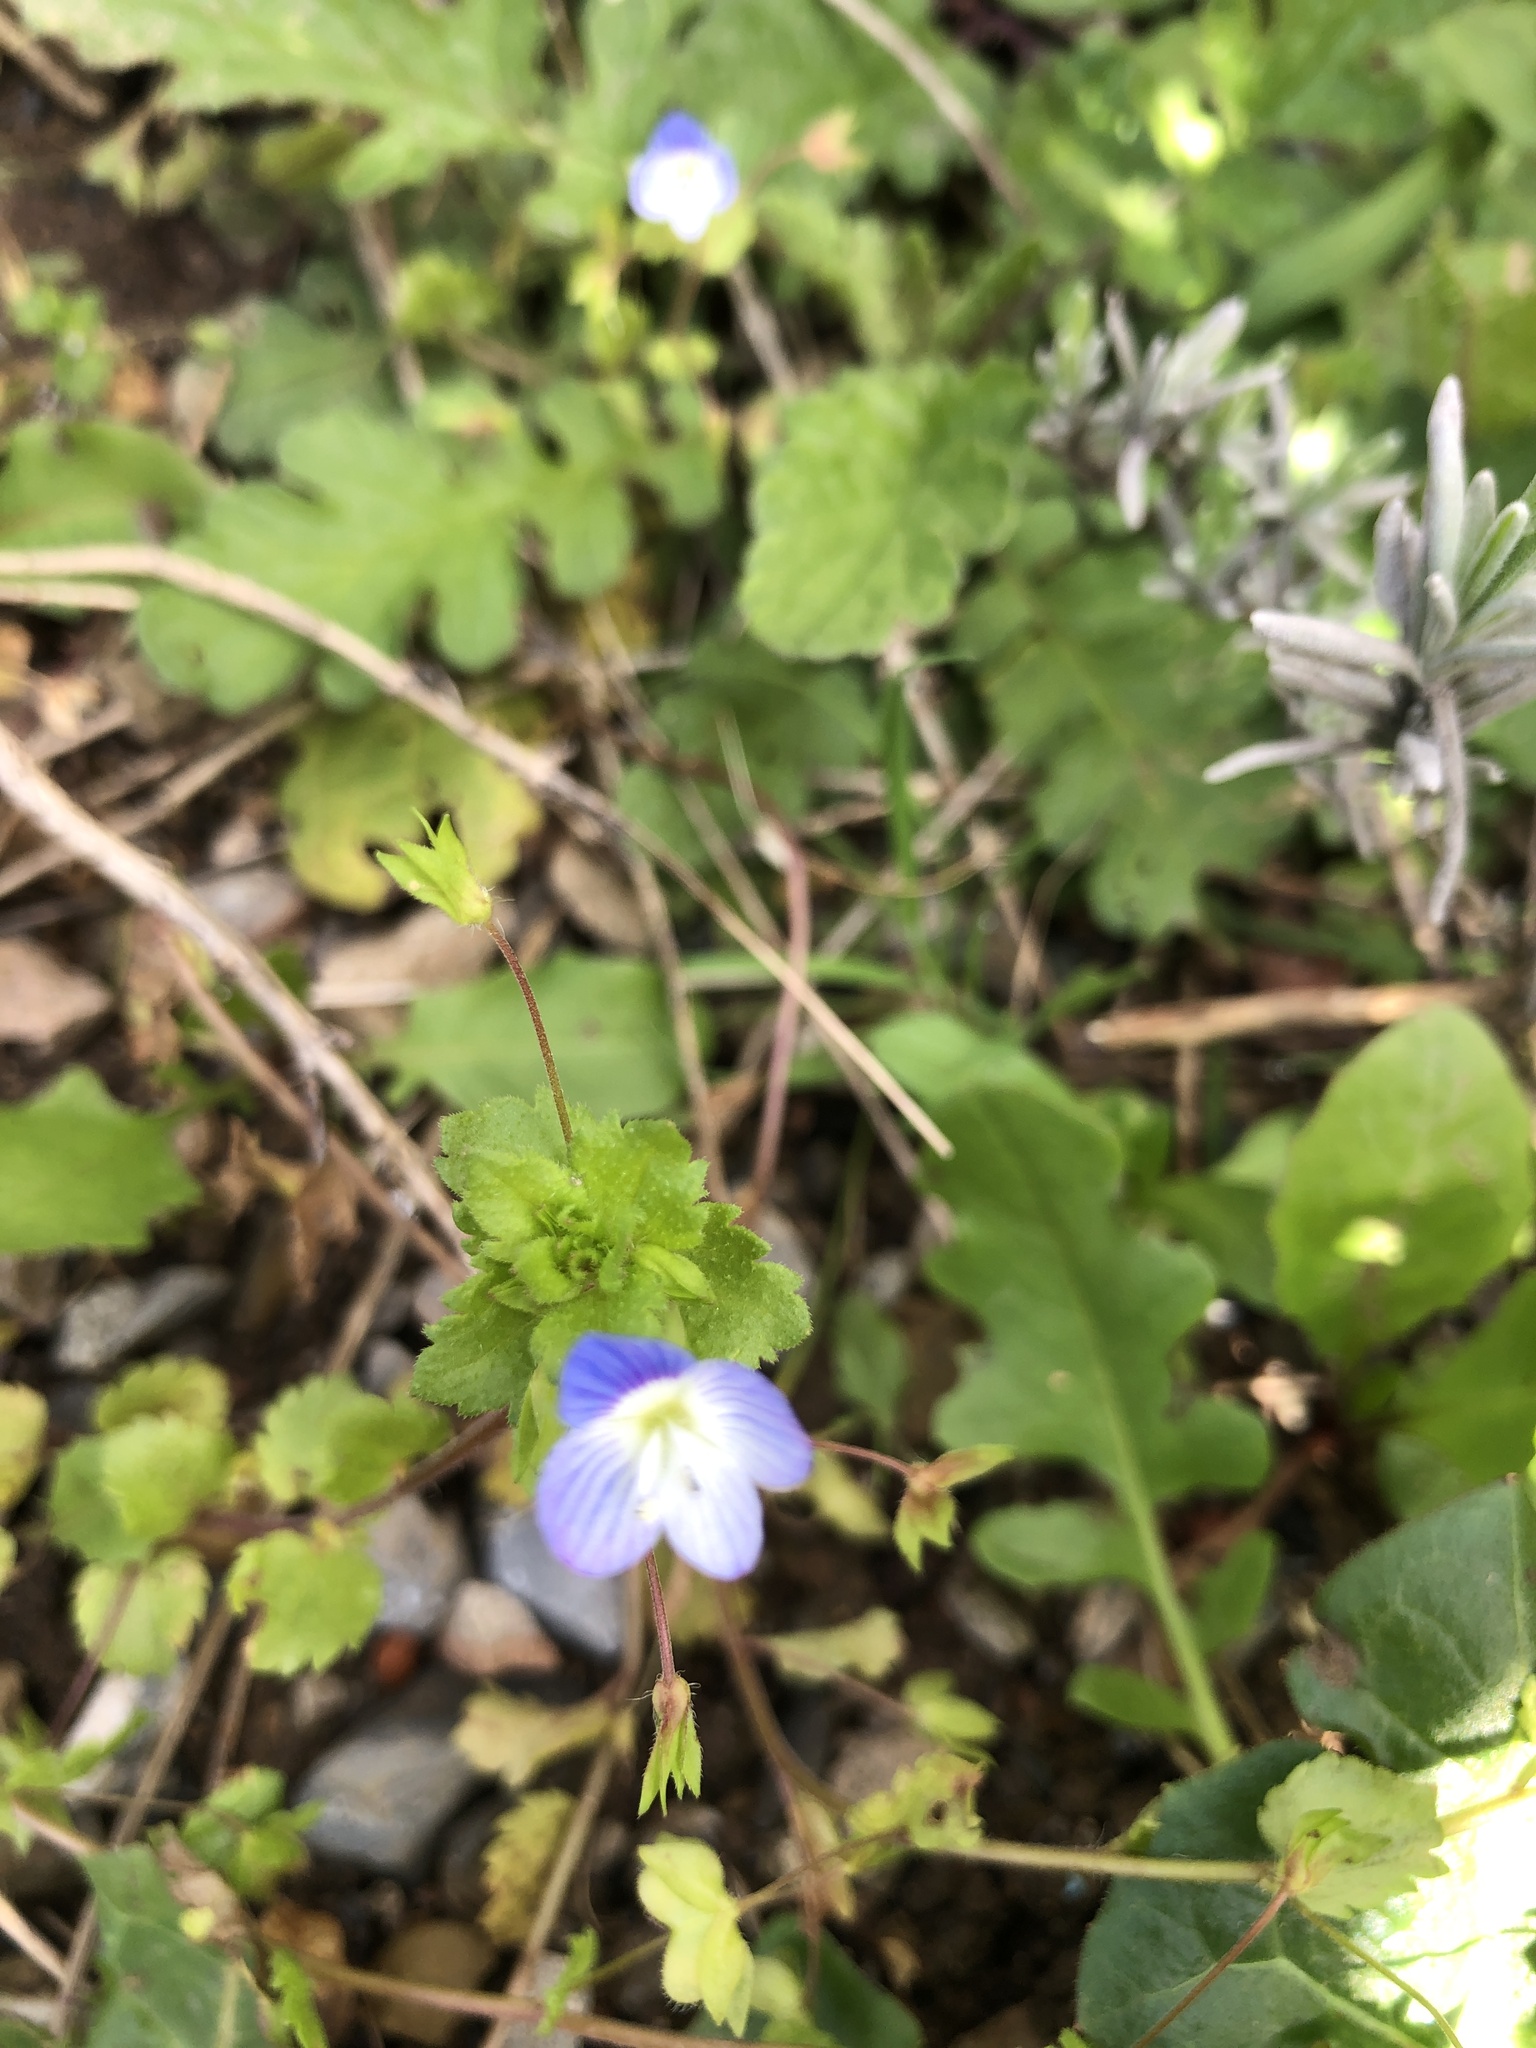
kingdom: Plantae
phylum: Tracheophyta
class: Magnoliopsida
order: Lamiales
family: Plantaginaceae
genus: Veronica
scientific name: Veronica persica
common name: Common field-speedwell
